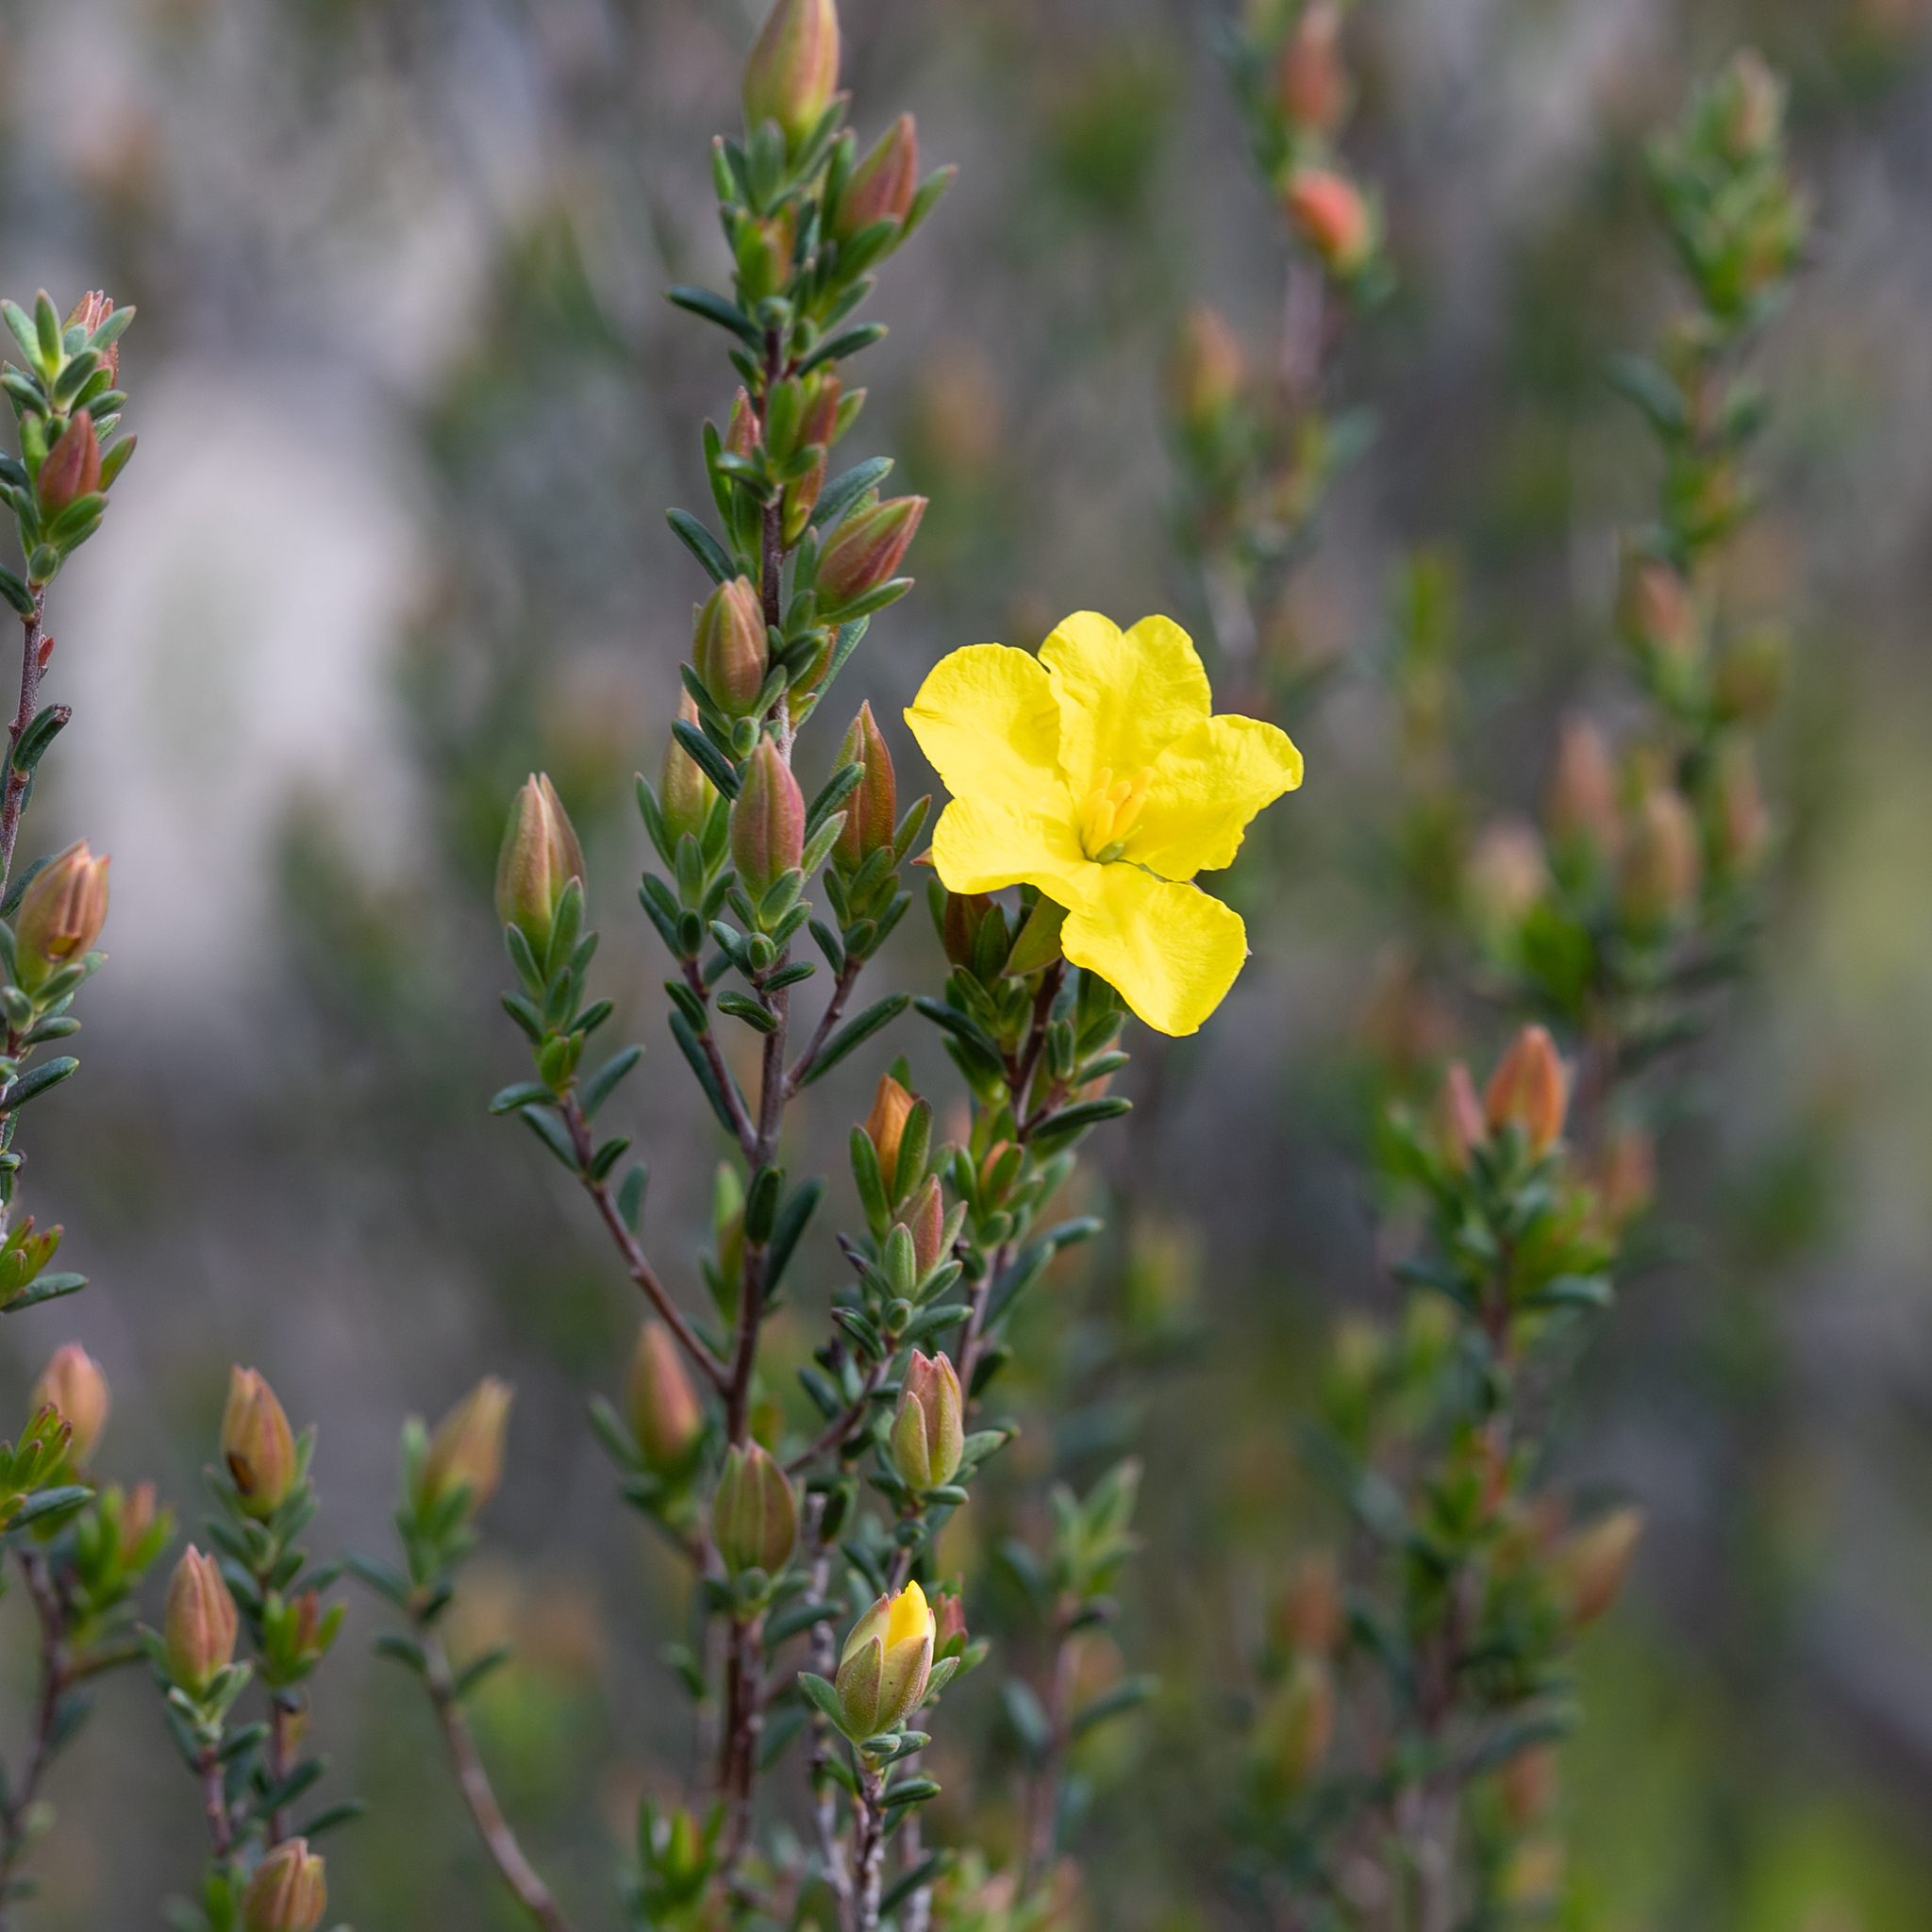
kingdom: Plantae
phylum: Tracheophyta
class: Magnoliopsida
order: Dilleniales
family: Dilleniaceae
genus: Hibbertia
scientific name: Hibbertia devitata
